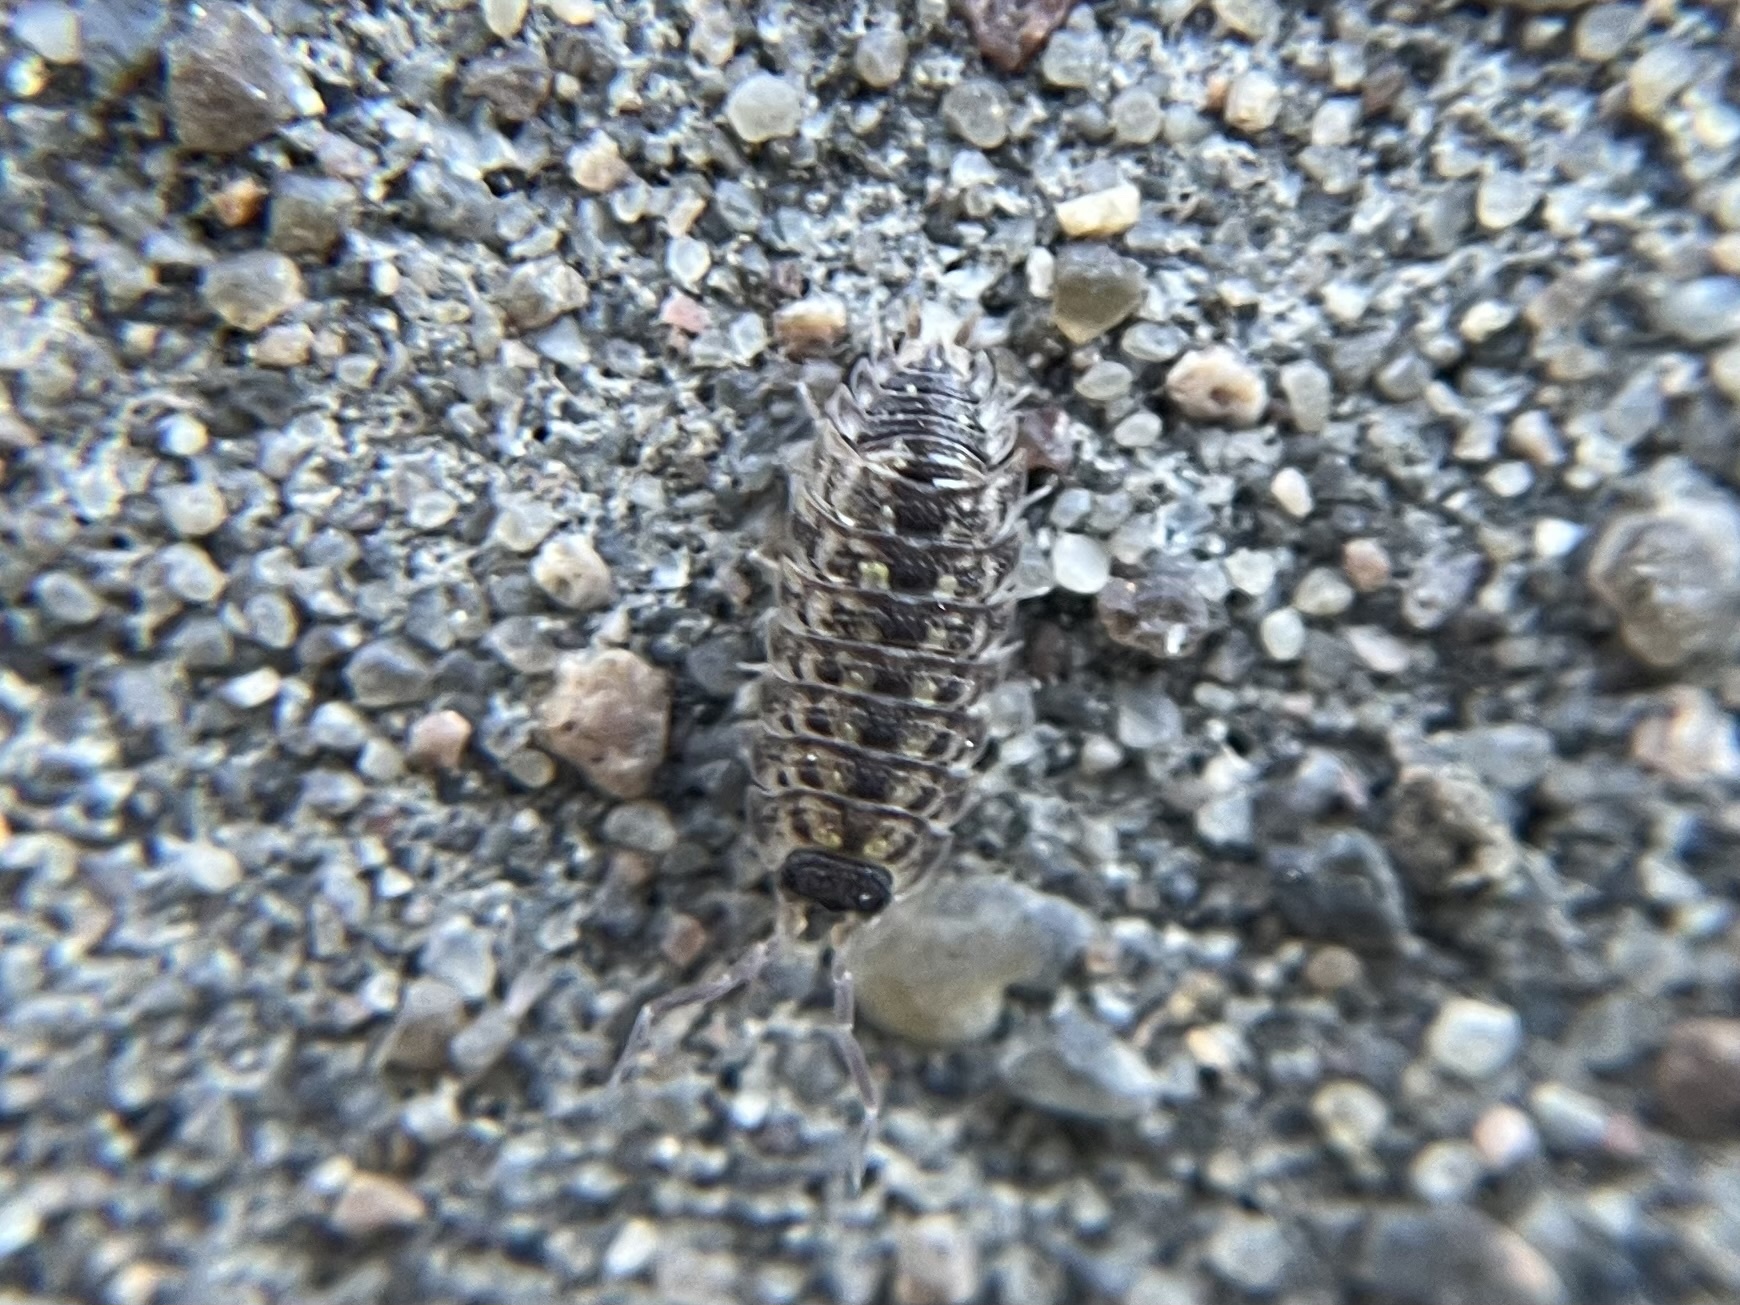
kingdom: Animalia
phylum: Arthropoda
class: Malacostraca
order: Isopoda
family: Porcellionidae
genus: Porcellio
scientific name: Porcellio spinicornis
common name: Painted woodlouse
